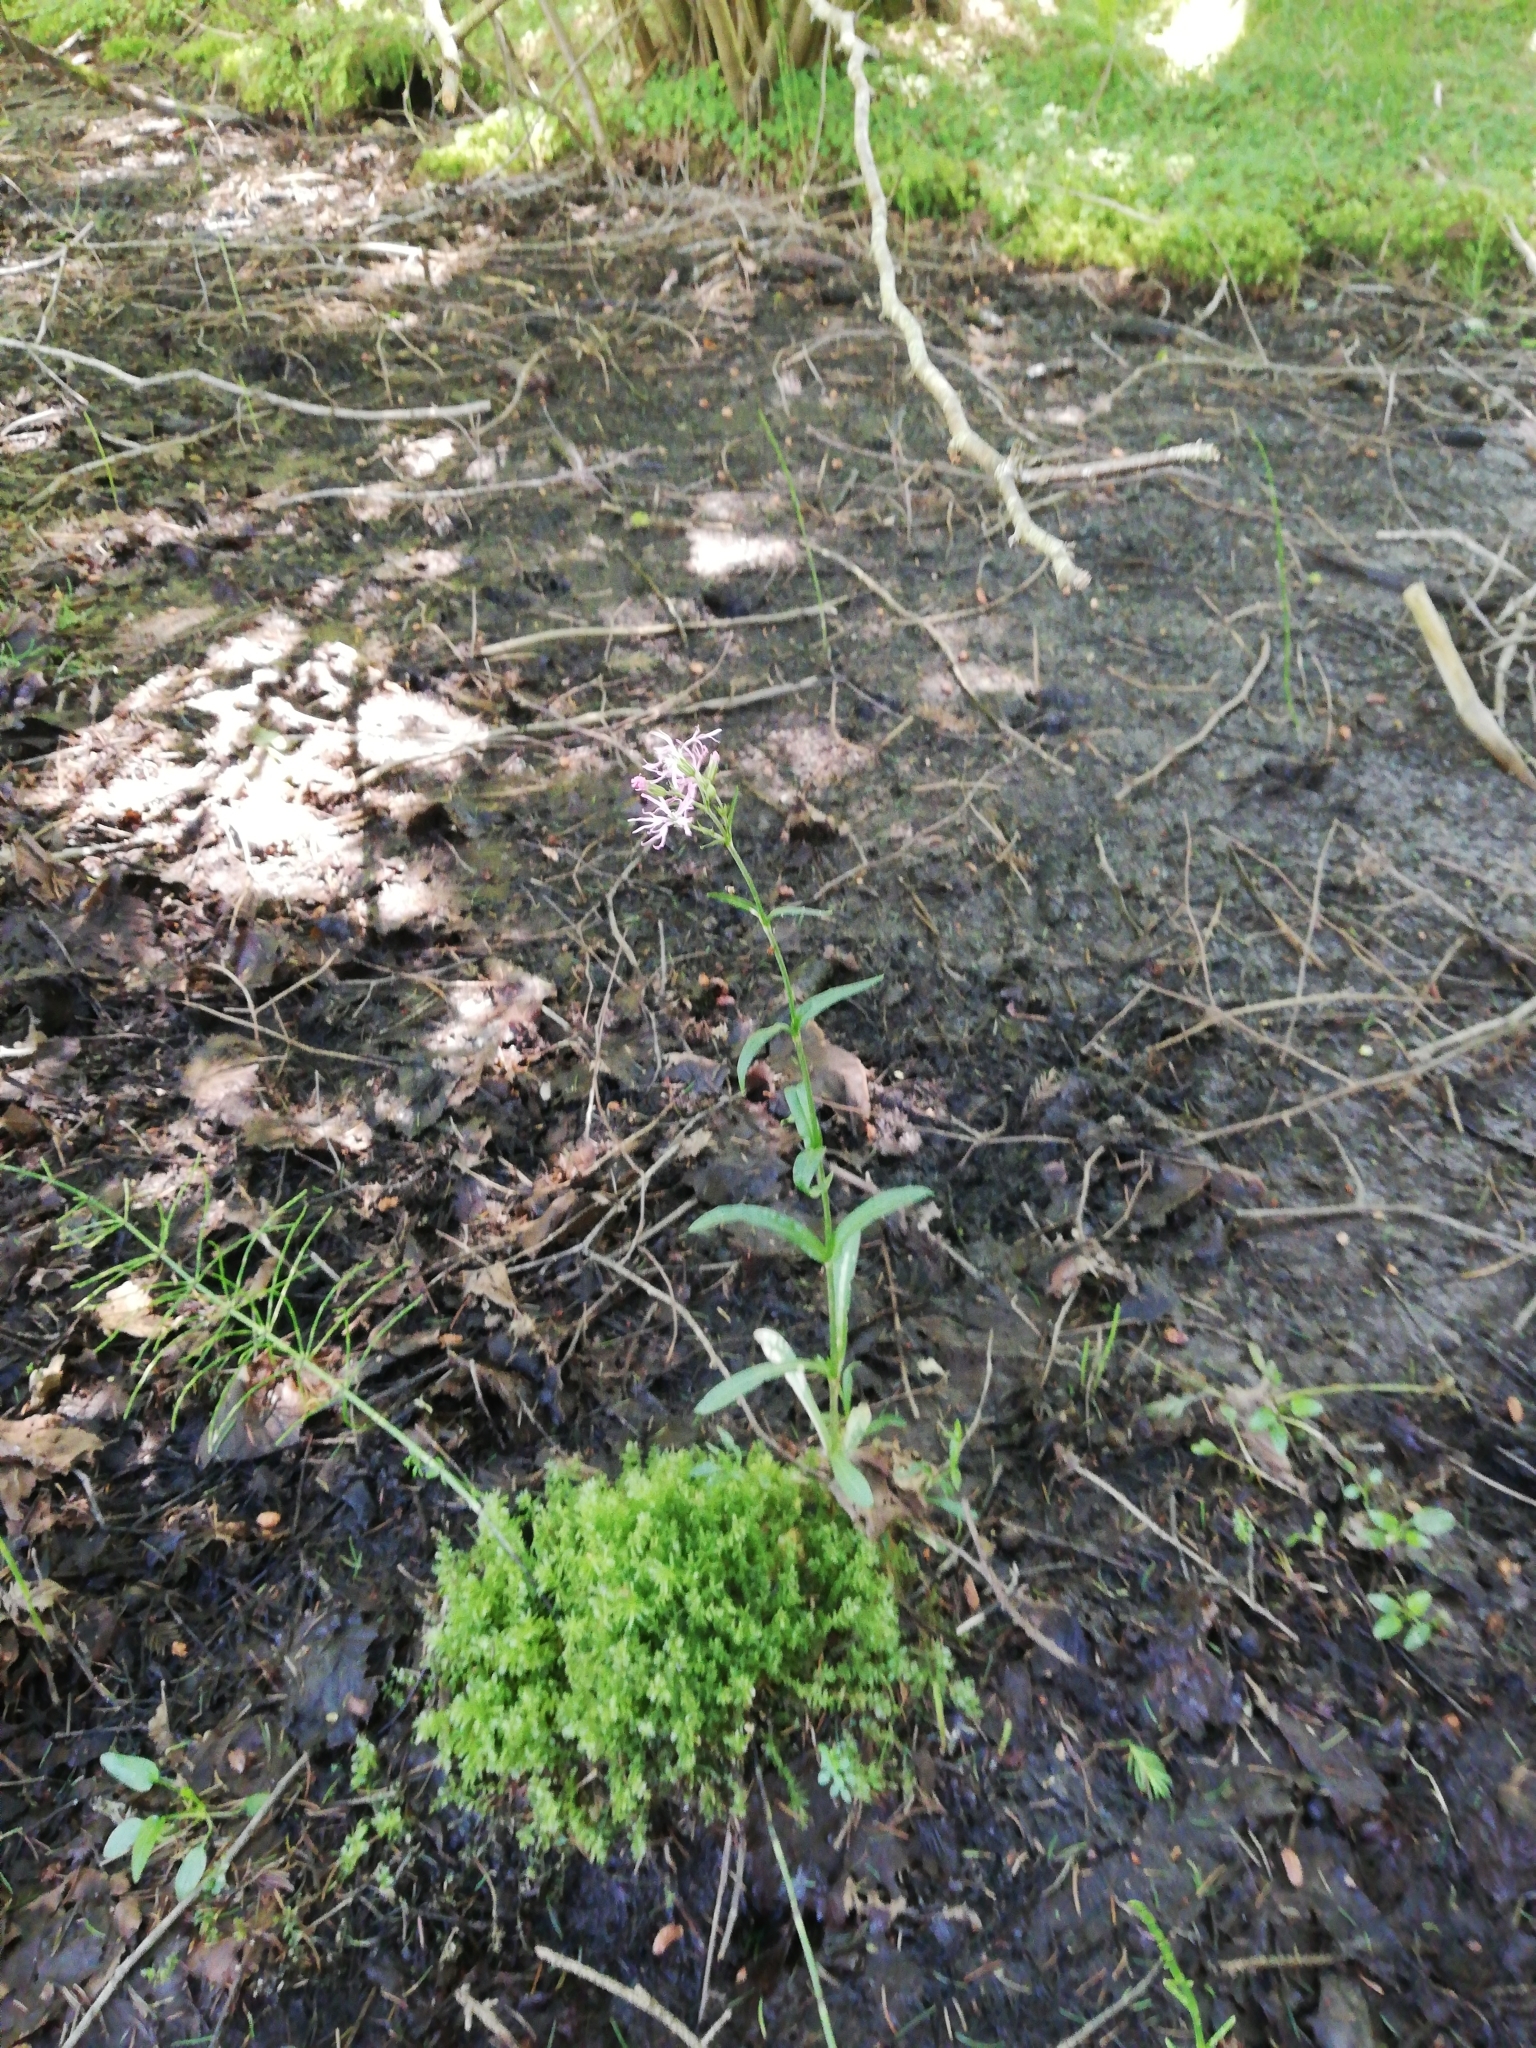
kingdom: Plantae
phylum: Tracheophyta
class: Magnoliopsida
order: Caryophyllales
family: Caryophyllaceae
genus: Silene
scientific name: Silene flos-cuculi
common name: Ragged-robin
